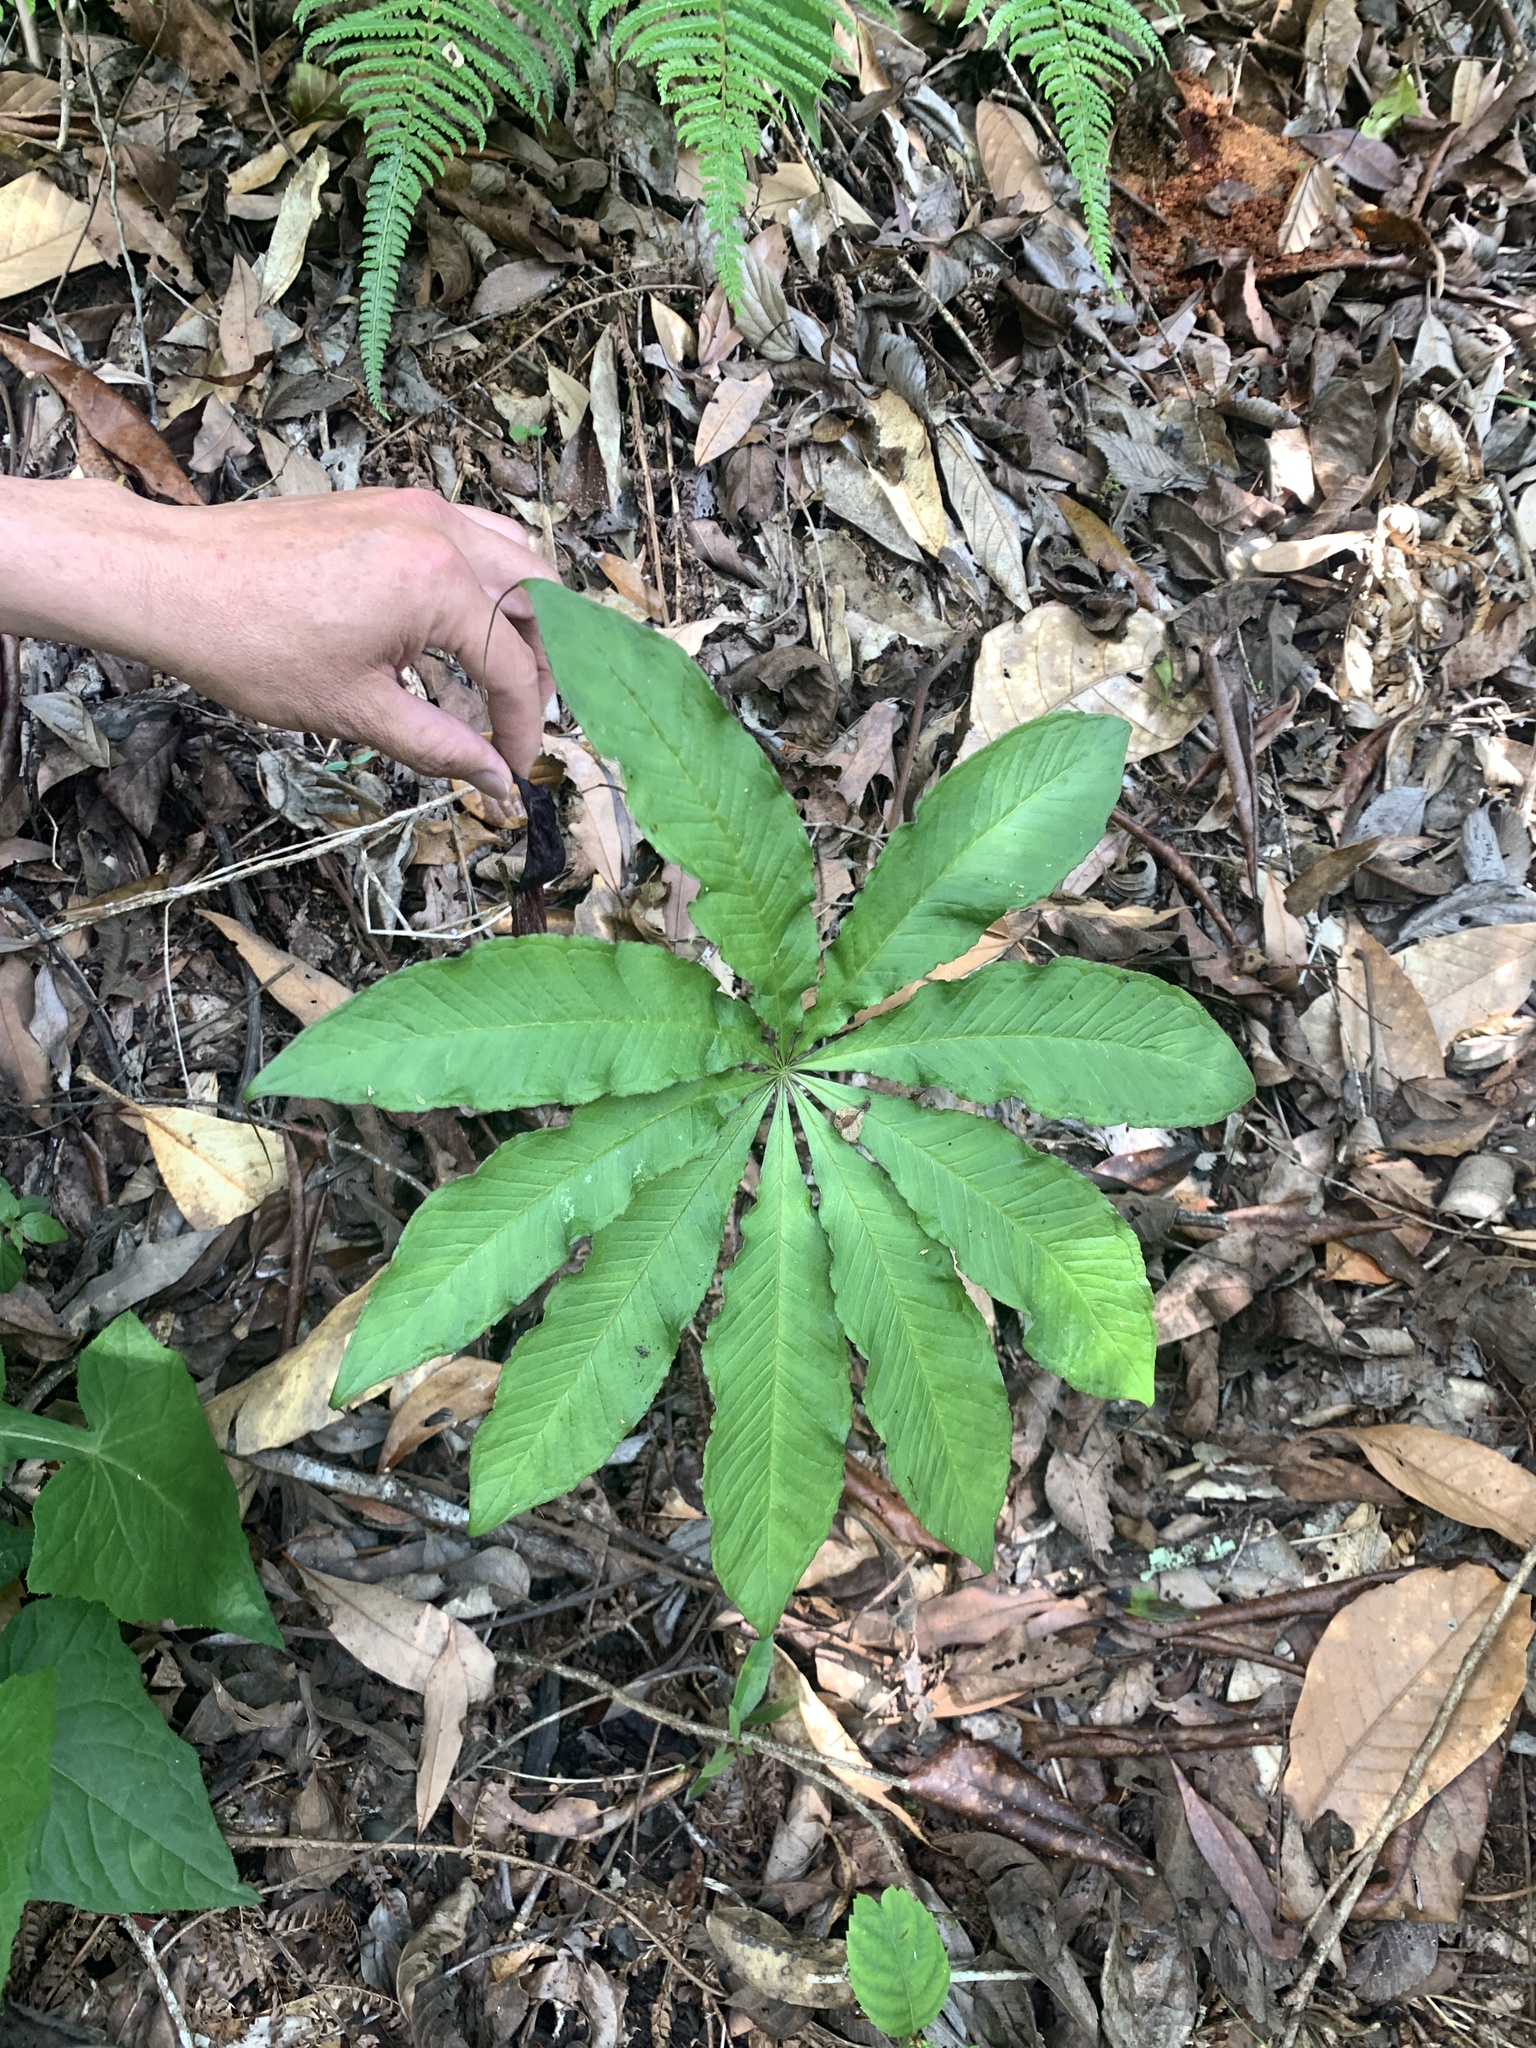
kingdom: Plantae
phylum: Tracheophyta
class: Liliopsida
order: Alismatales
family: Araceae
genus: Arisaema
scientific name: Arisaema taiwanense
